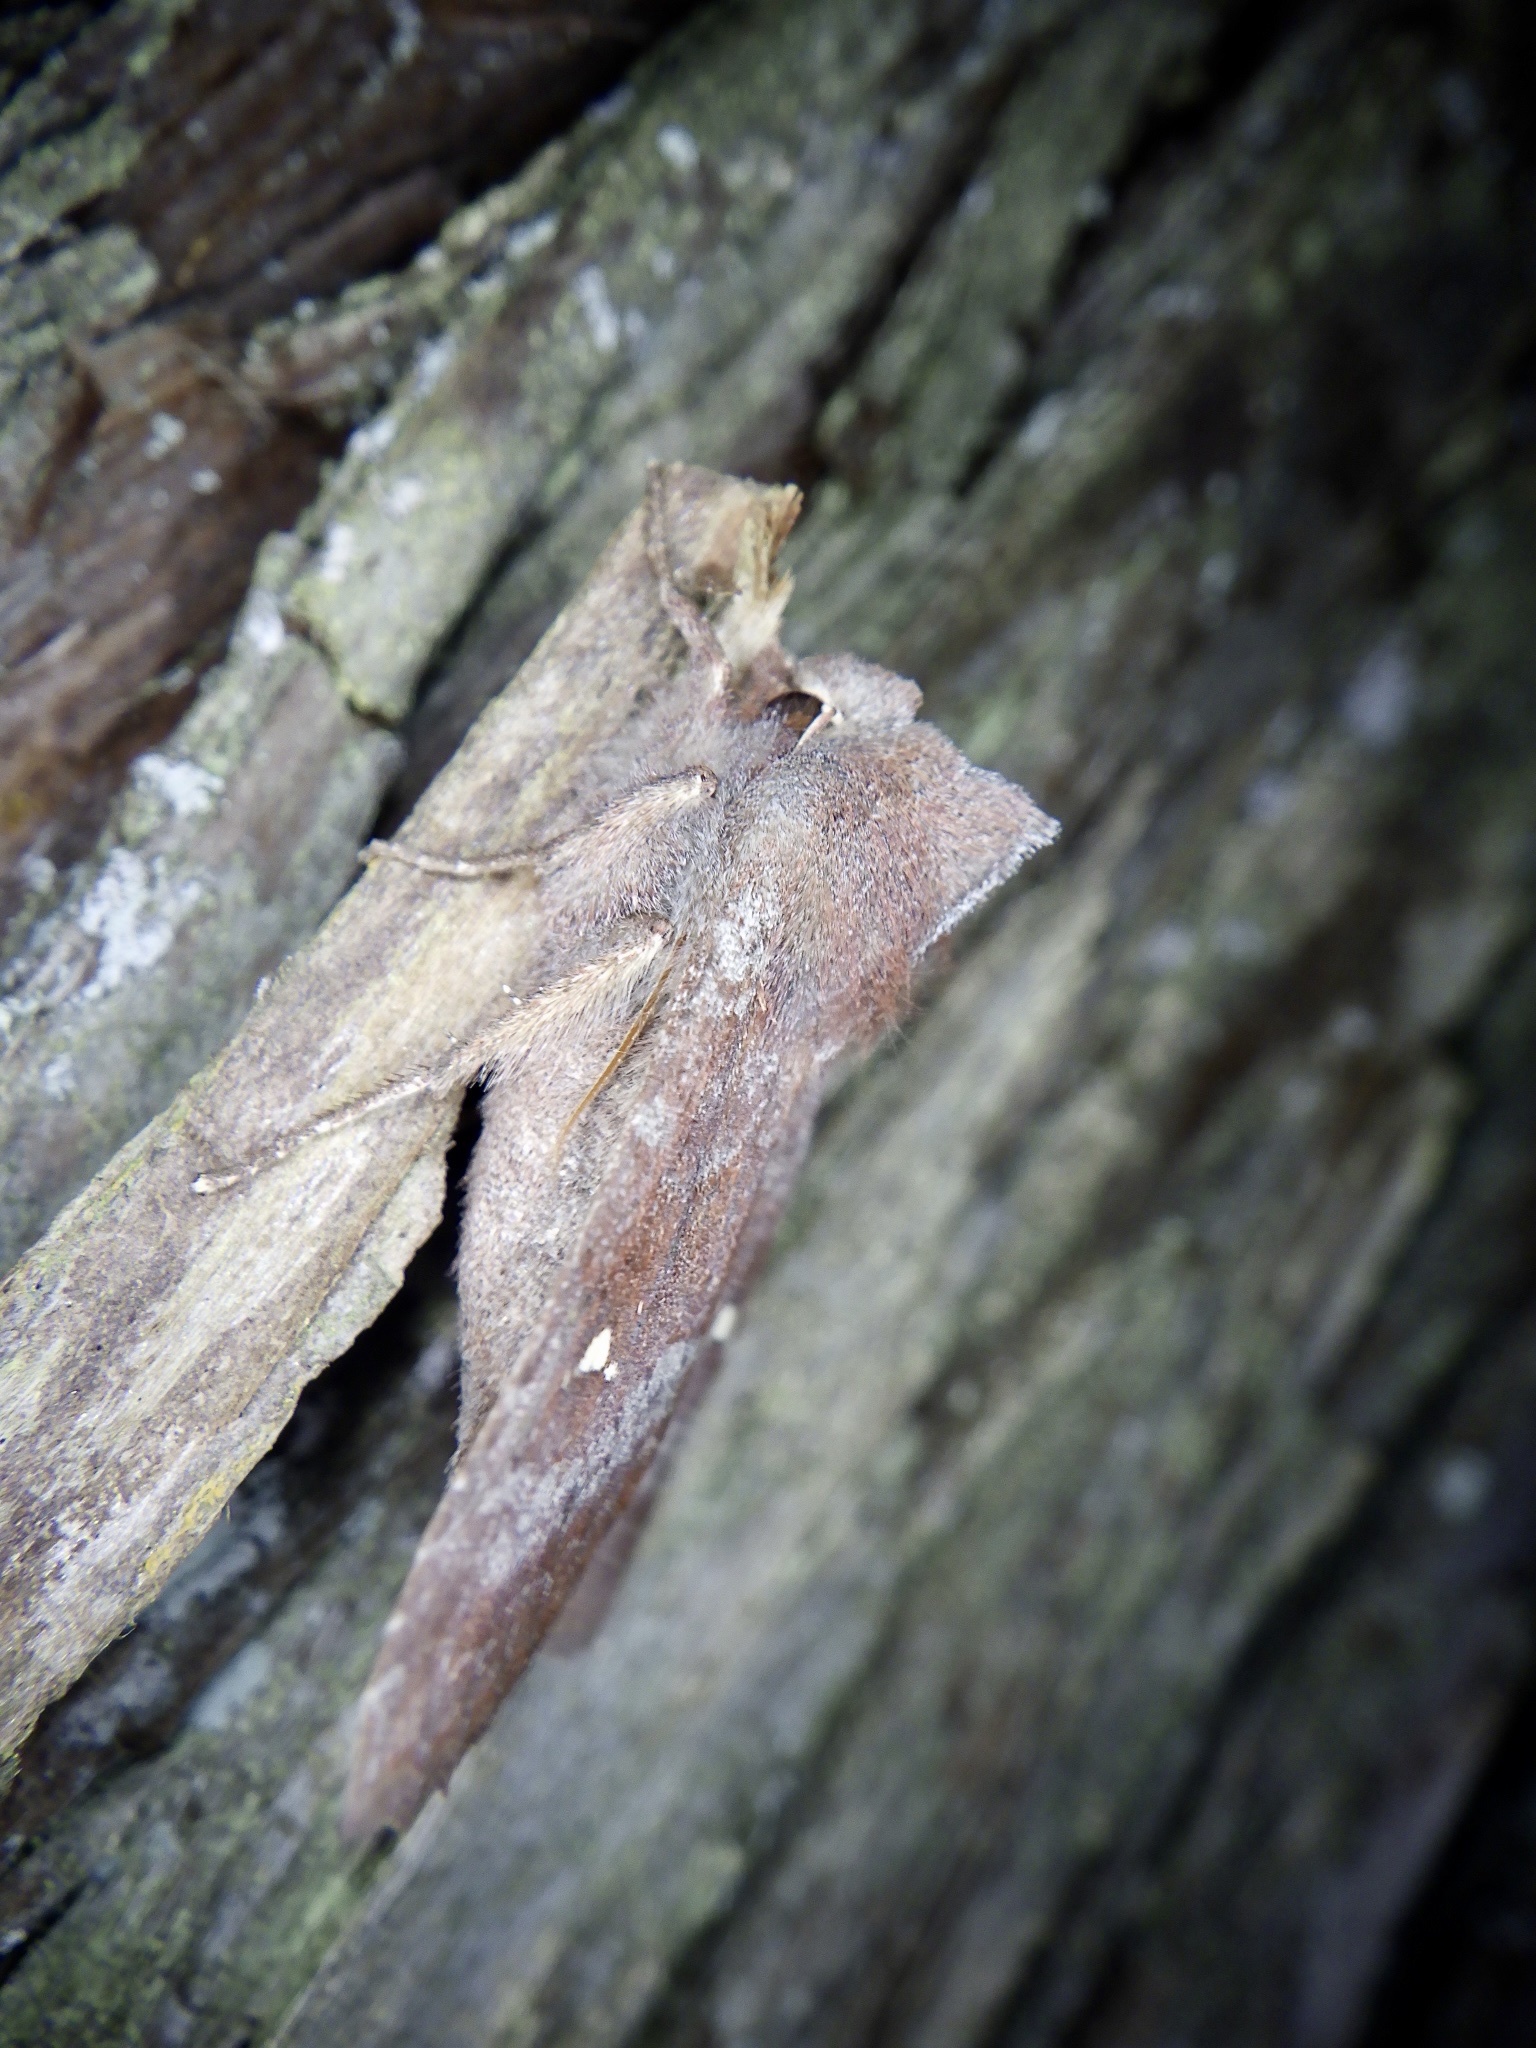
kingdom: Animalia
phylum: Arthropoda
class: Insecta
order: Lepidoptera
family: Noctuidae
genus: Eupsilia
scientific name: Eupsilia unipuncta
